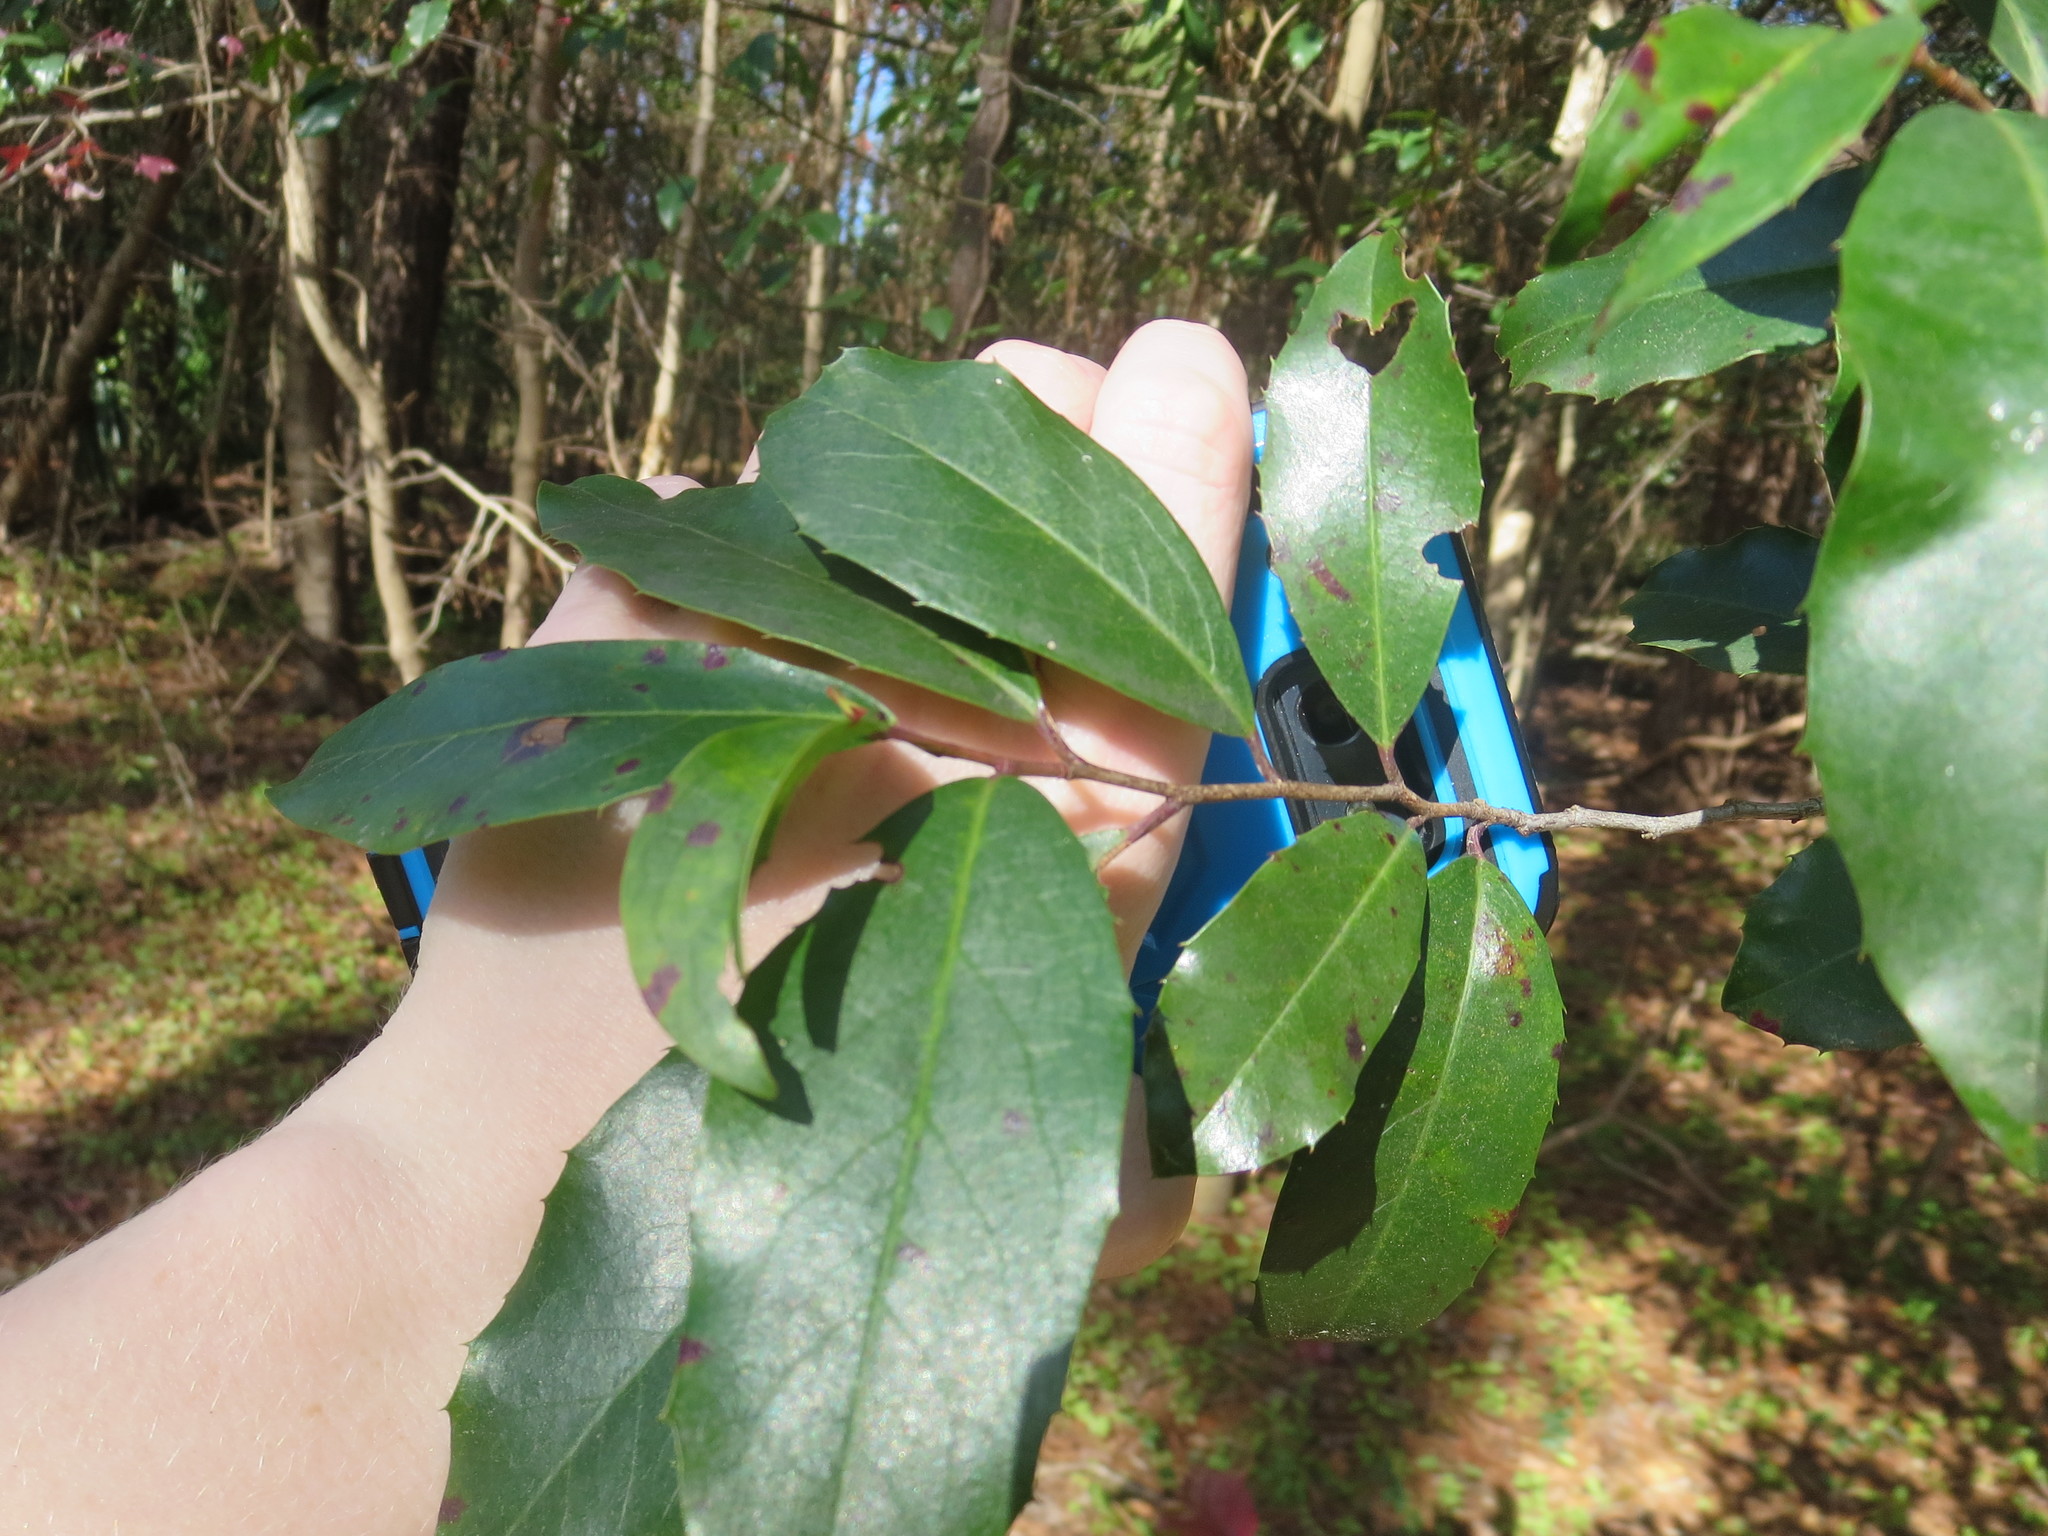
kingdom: Plantae
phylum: Tracheophyta
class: Magnoliopsida
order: Rosales
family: Rosaceae
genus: Prunus
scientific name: Prunus caroliniana
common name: Carolina laurel cherry
